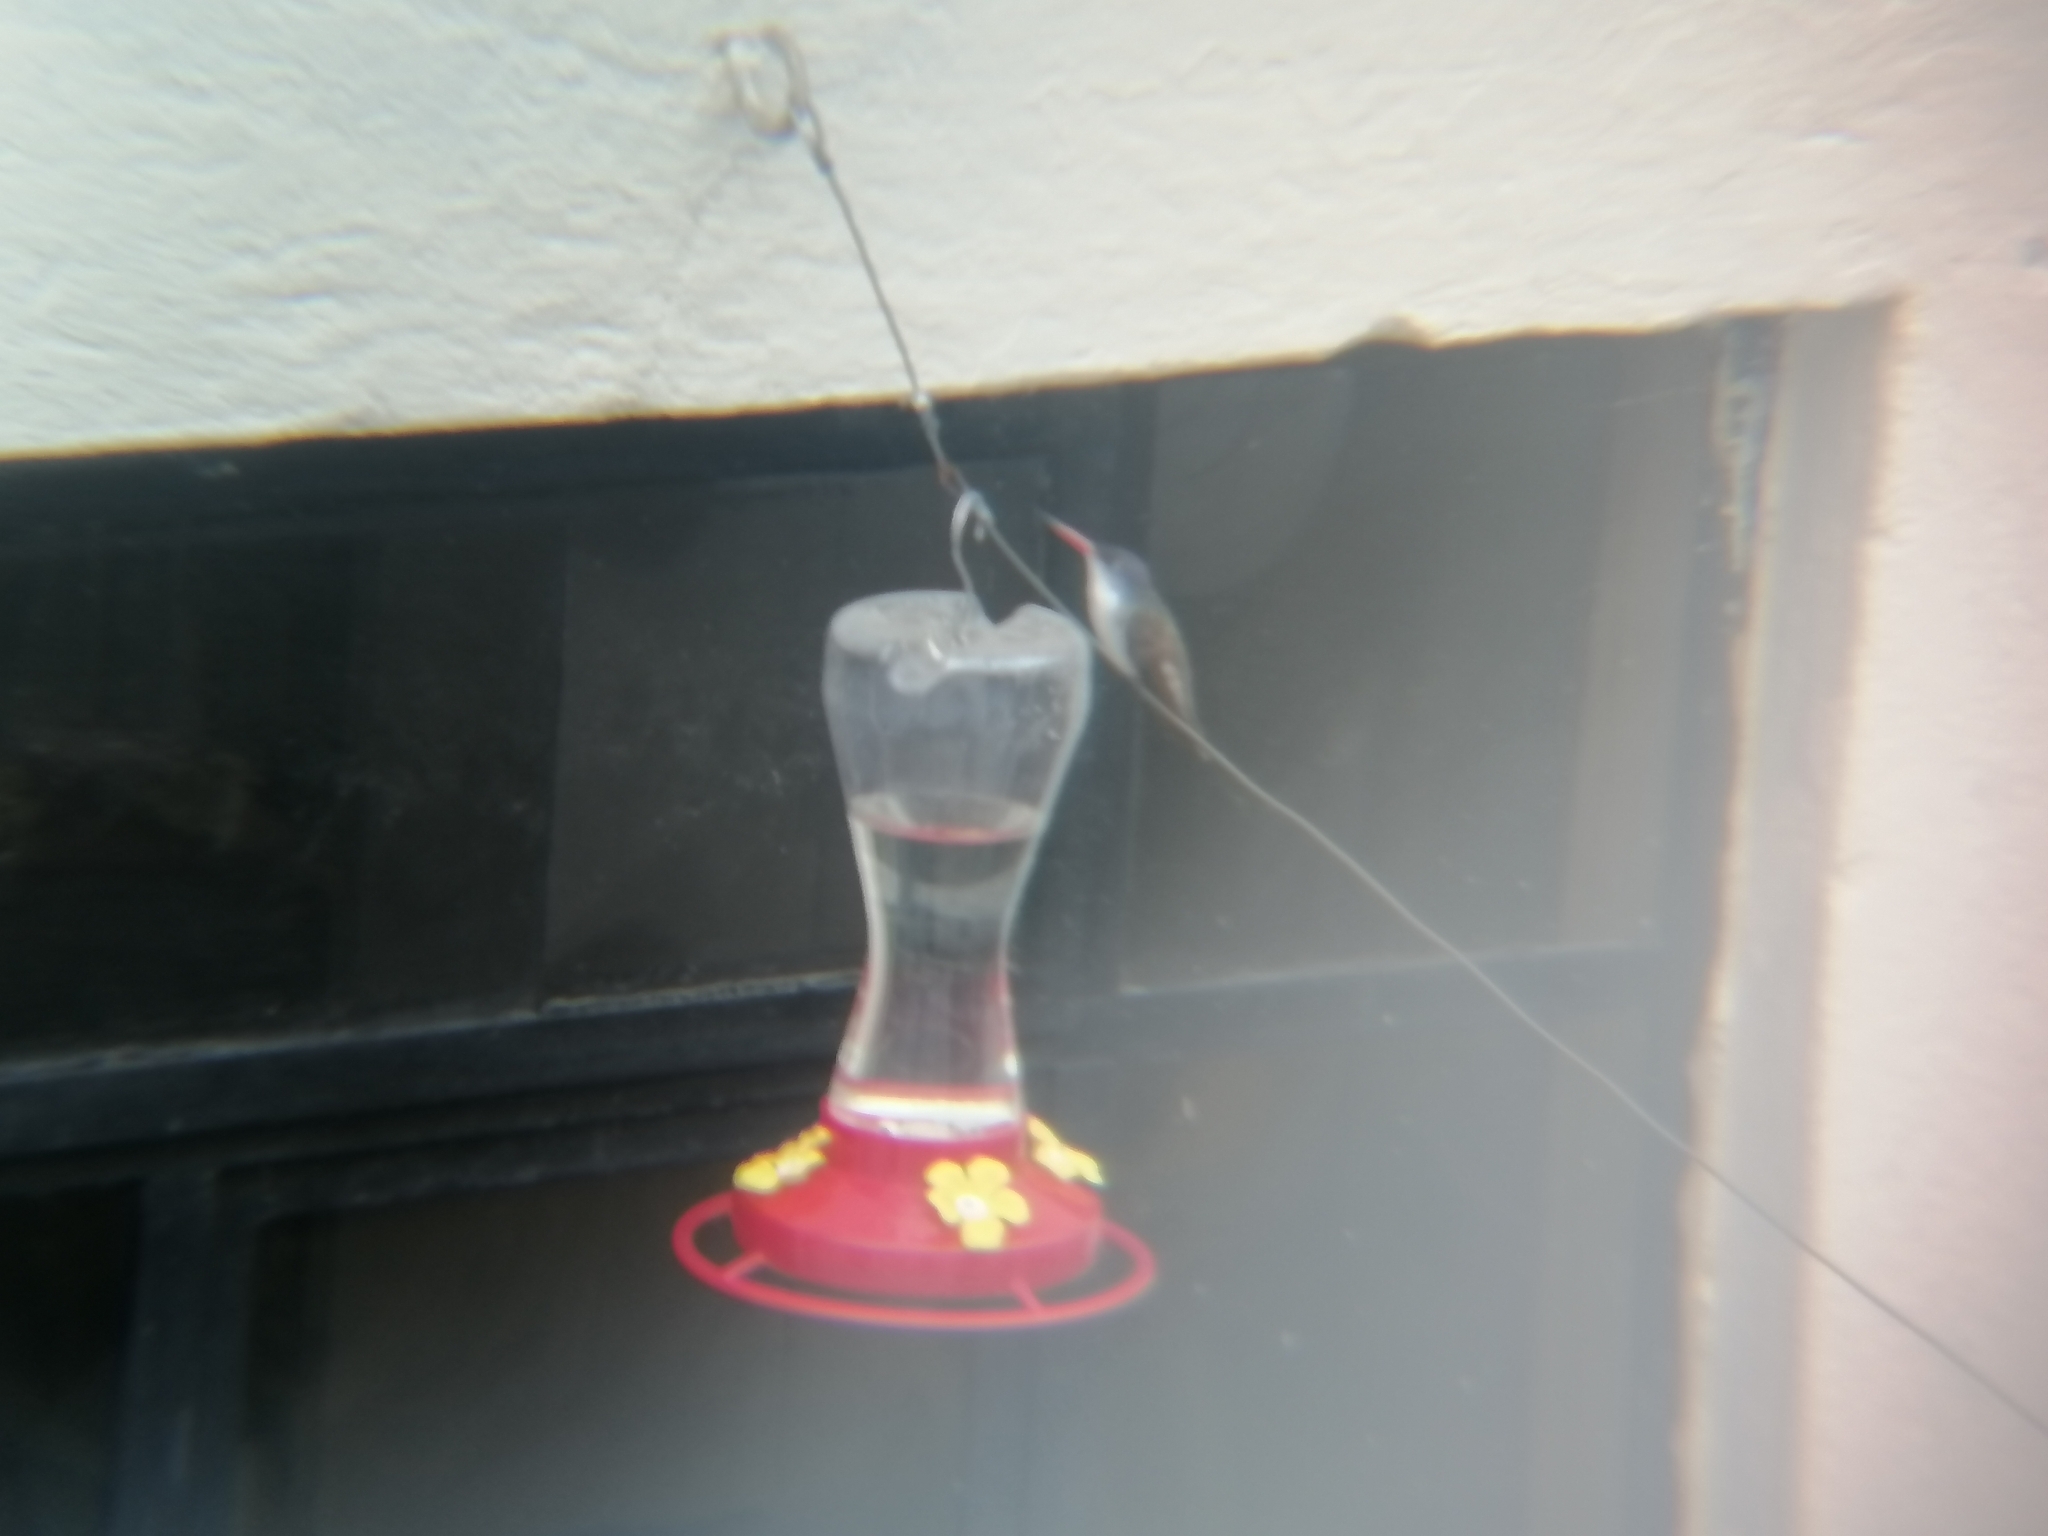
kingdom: Animalia
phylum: Chordata
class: Aves
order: Apodiformes
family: Trochilidae
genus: Leucolia
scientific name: Leucolia violiceps
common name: Violet-crowned hummingbird
